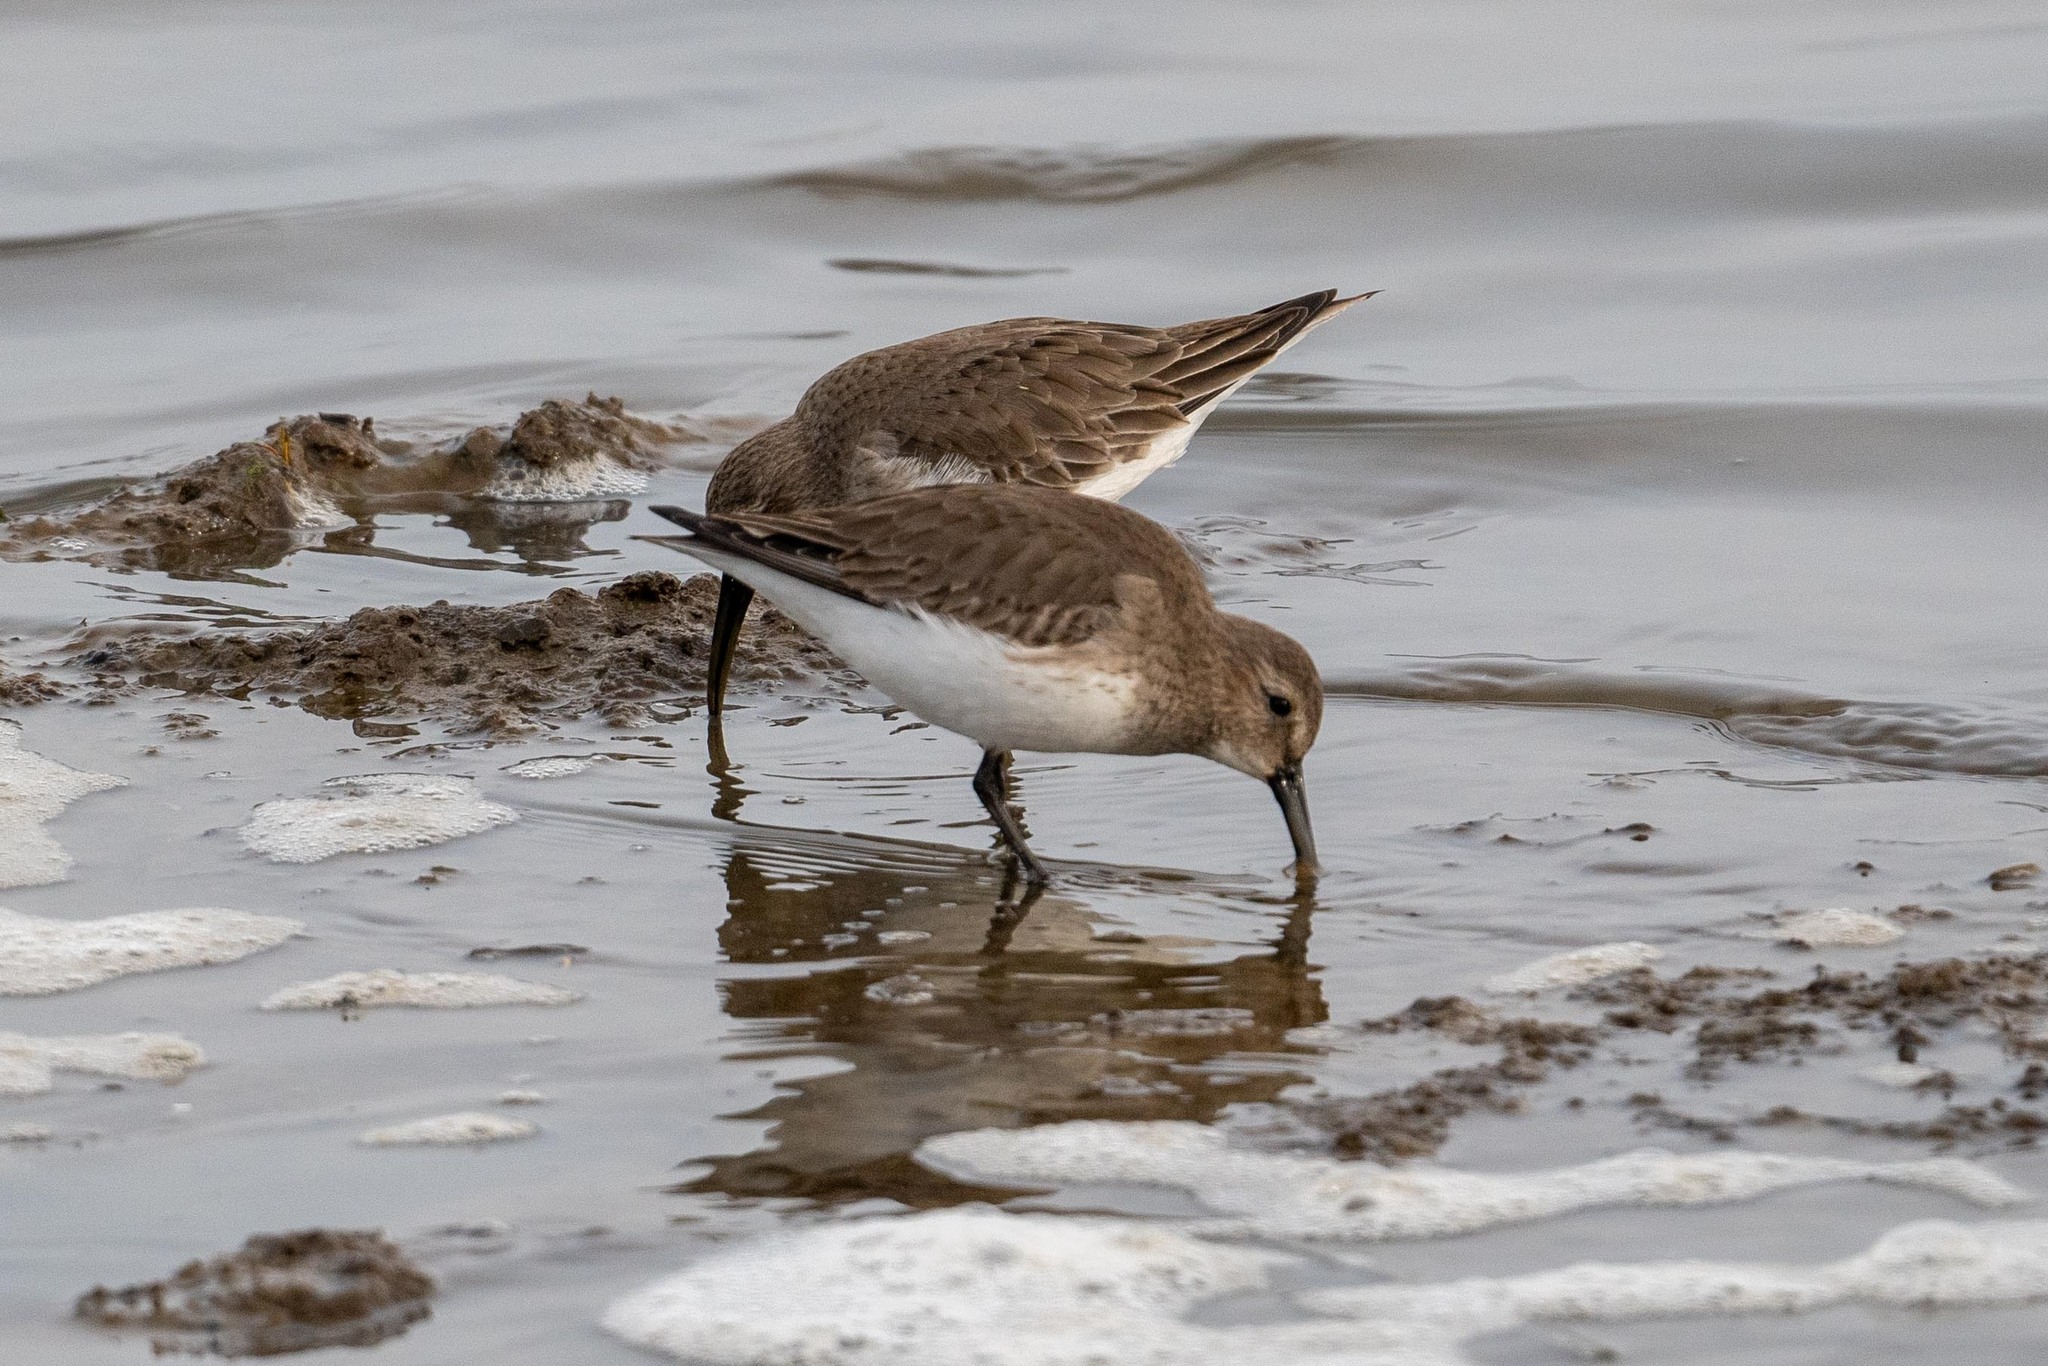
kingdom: Animalia
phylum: Chordata
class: Aves
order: Charadriiformes
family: Scolopacidae
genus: Calidris
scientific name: Calidris alpina
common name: Dunlin
